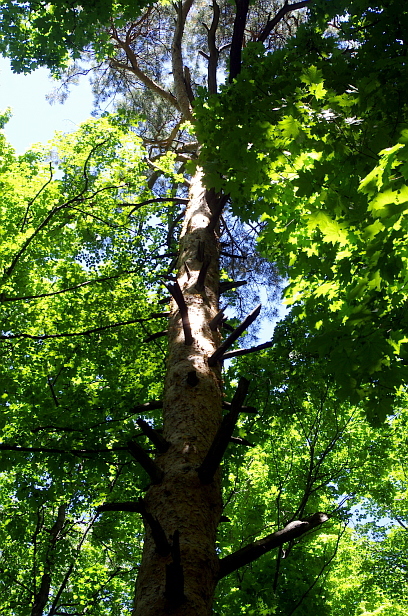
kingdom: Plantae
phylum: Tracheophyta
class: Pinopsida
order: Pinales
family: Pinaceae
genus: Pinus
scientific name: Pinus sylvestris
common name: Scots pine
